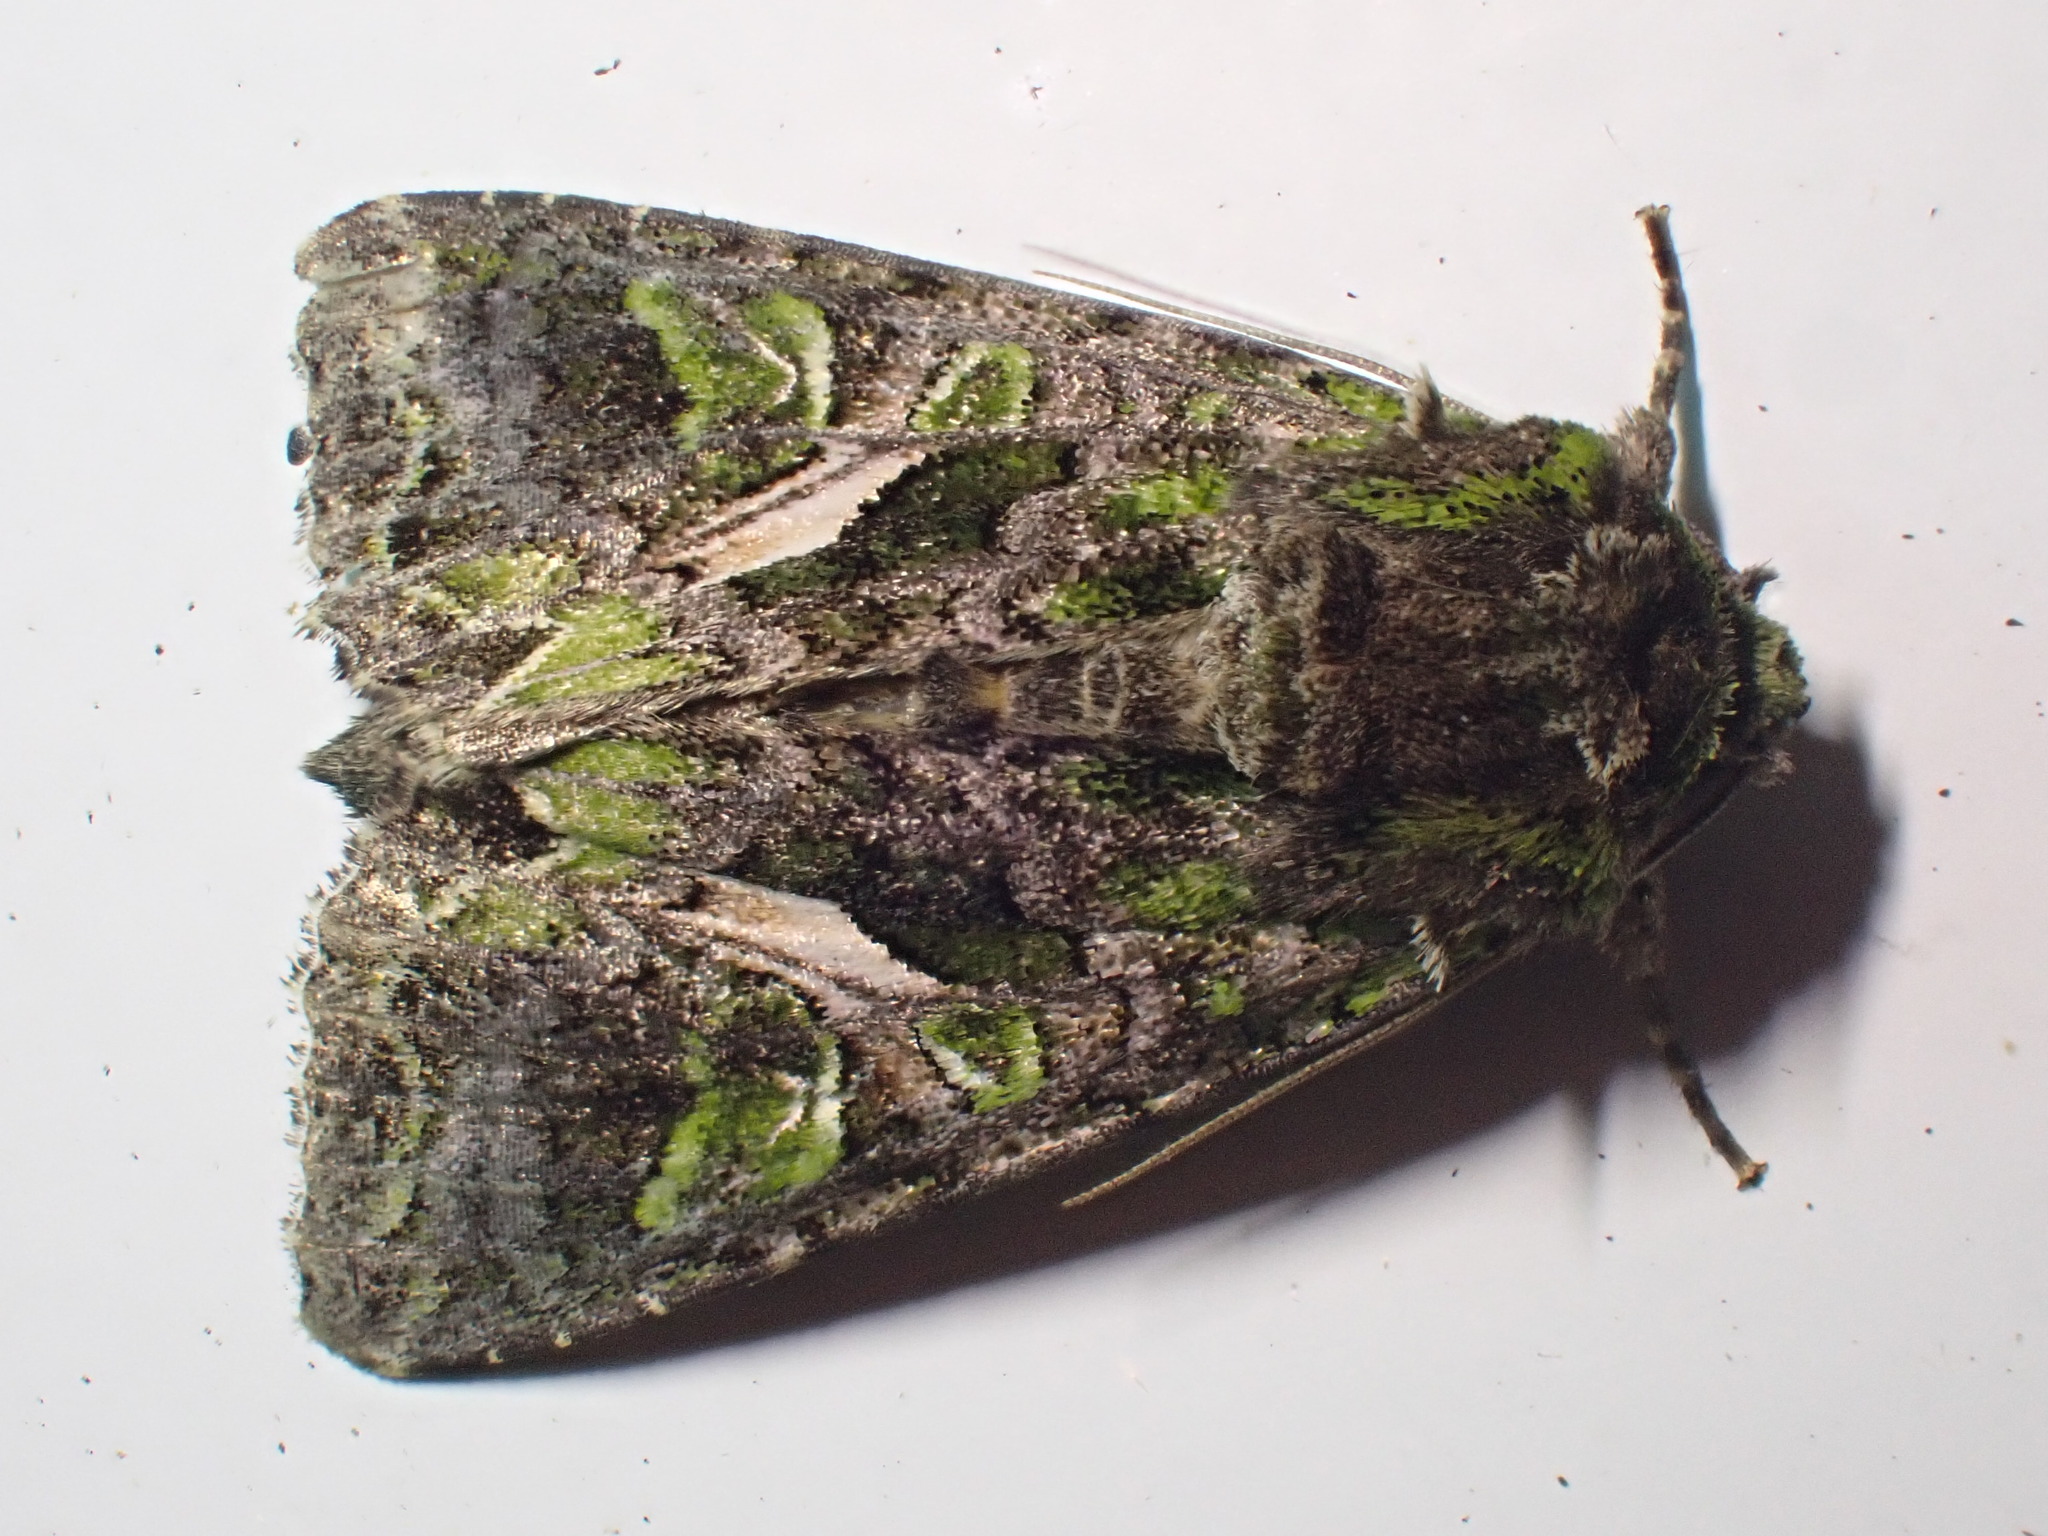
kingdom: Animalia
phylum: Arthropoda
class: Insecta
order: Lepidoptera
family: Noctuidae
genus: Trachea
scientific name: Trachea atriplicis
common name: Orache moth
